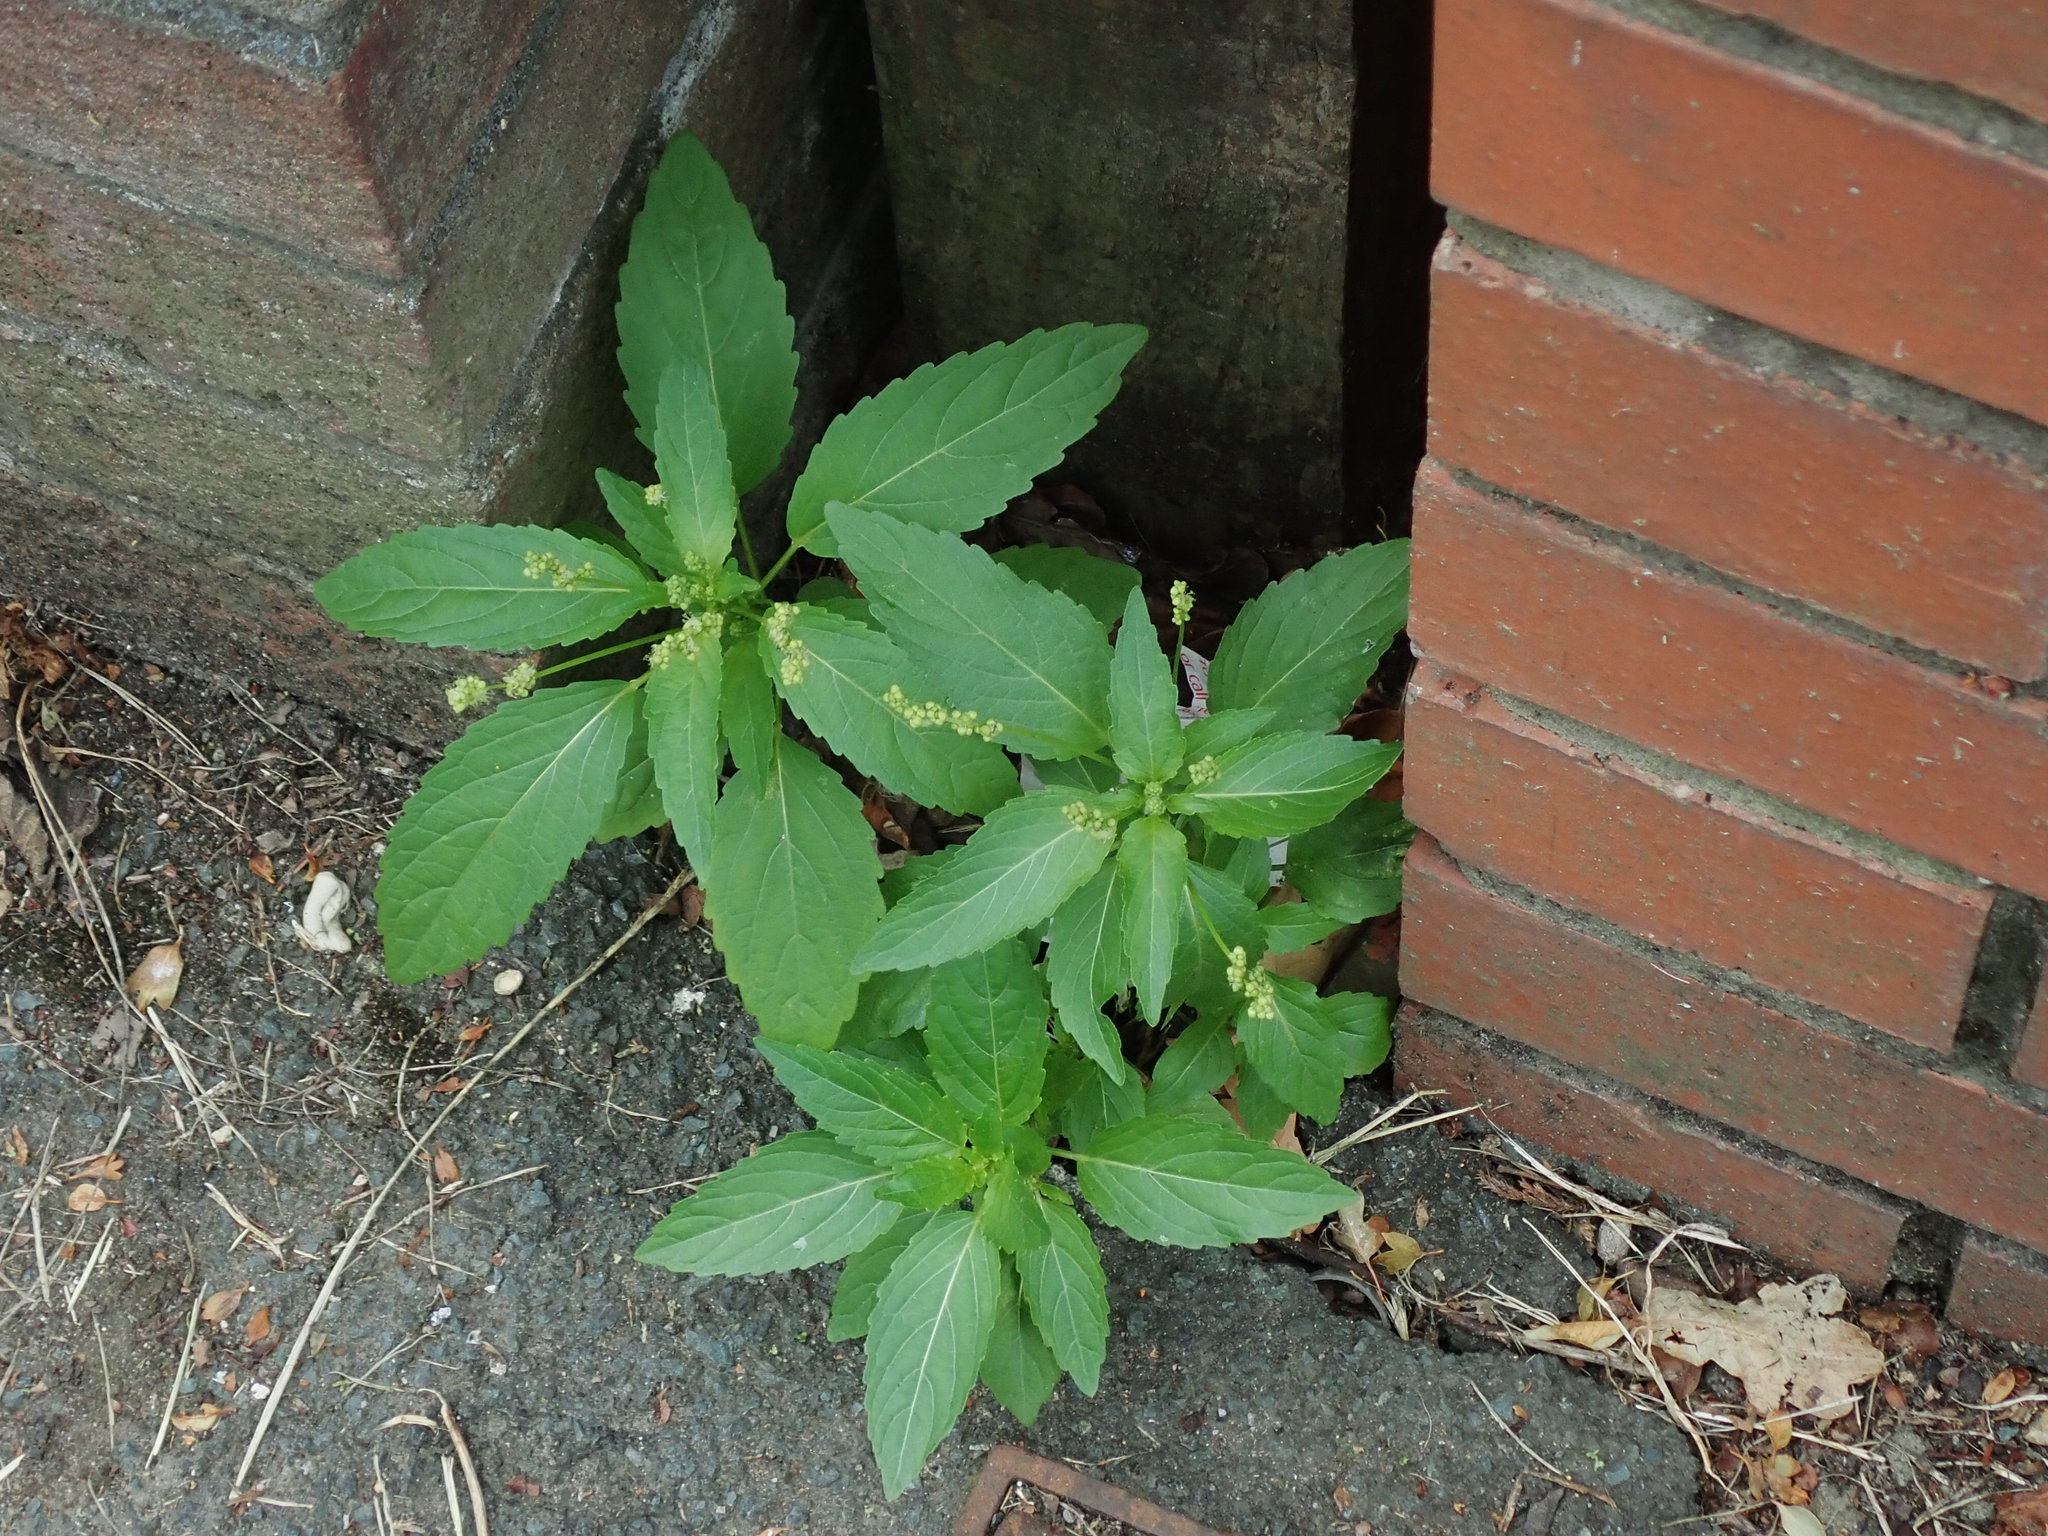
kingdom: Plantae
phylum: Tracheophyta
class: Magnoliopsida
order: Malpighiales
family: Euphorbiaceae
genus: Mercurialis
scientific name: Mercurialis annua
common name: Annual mercury
